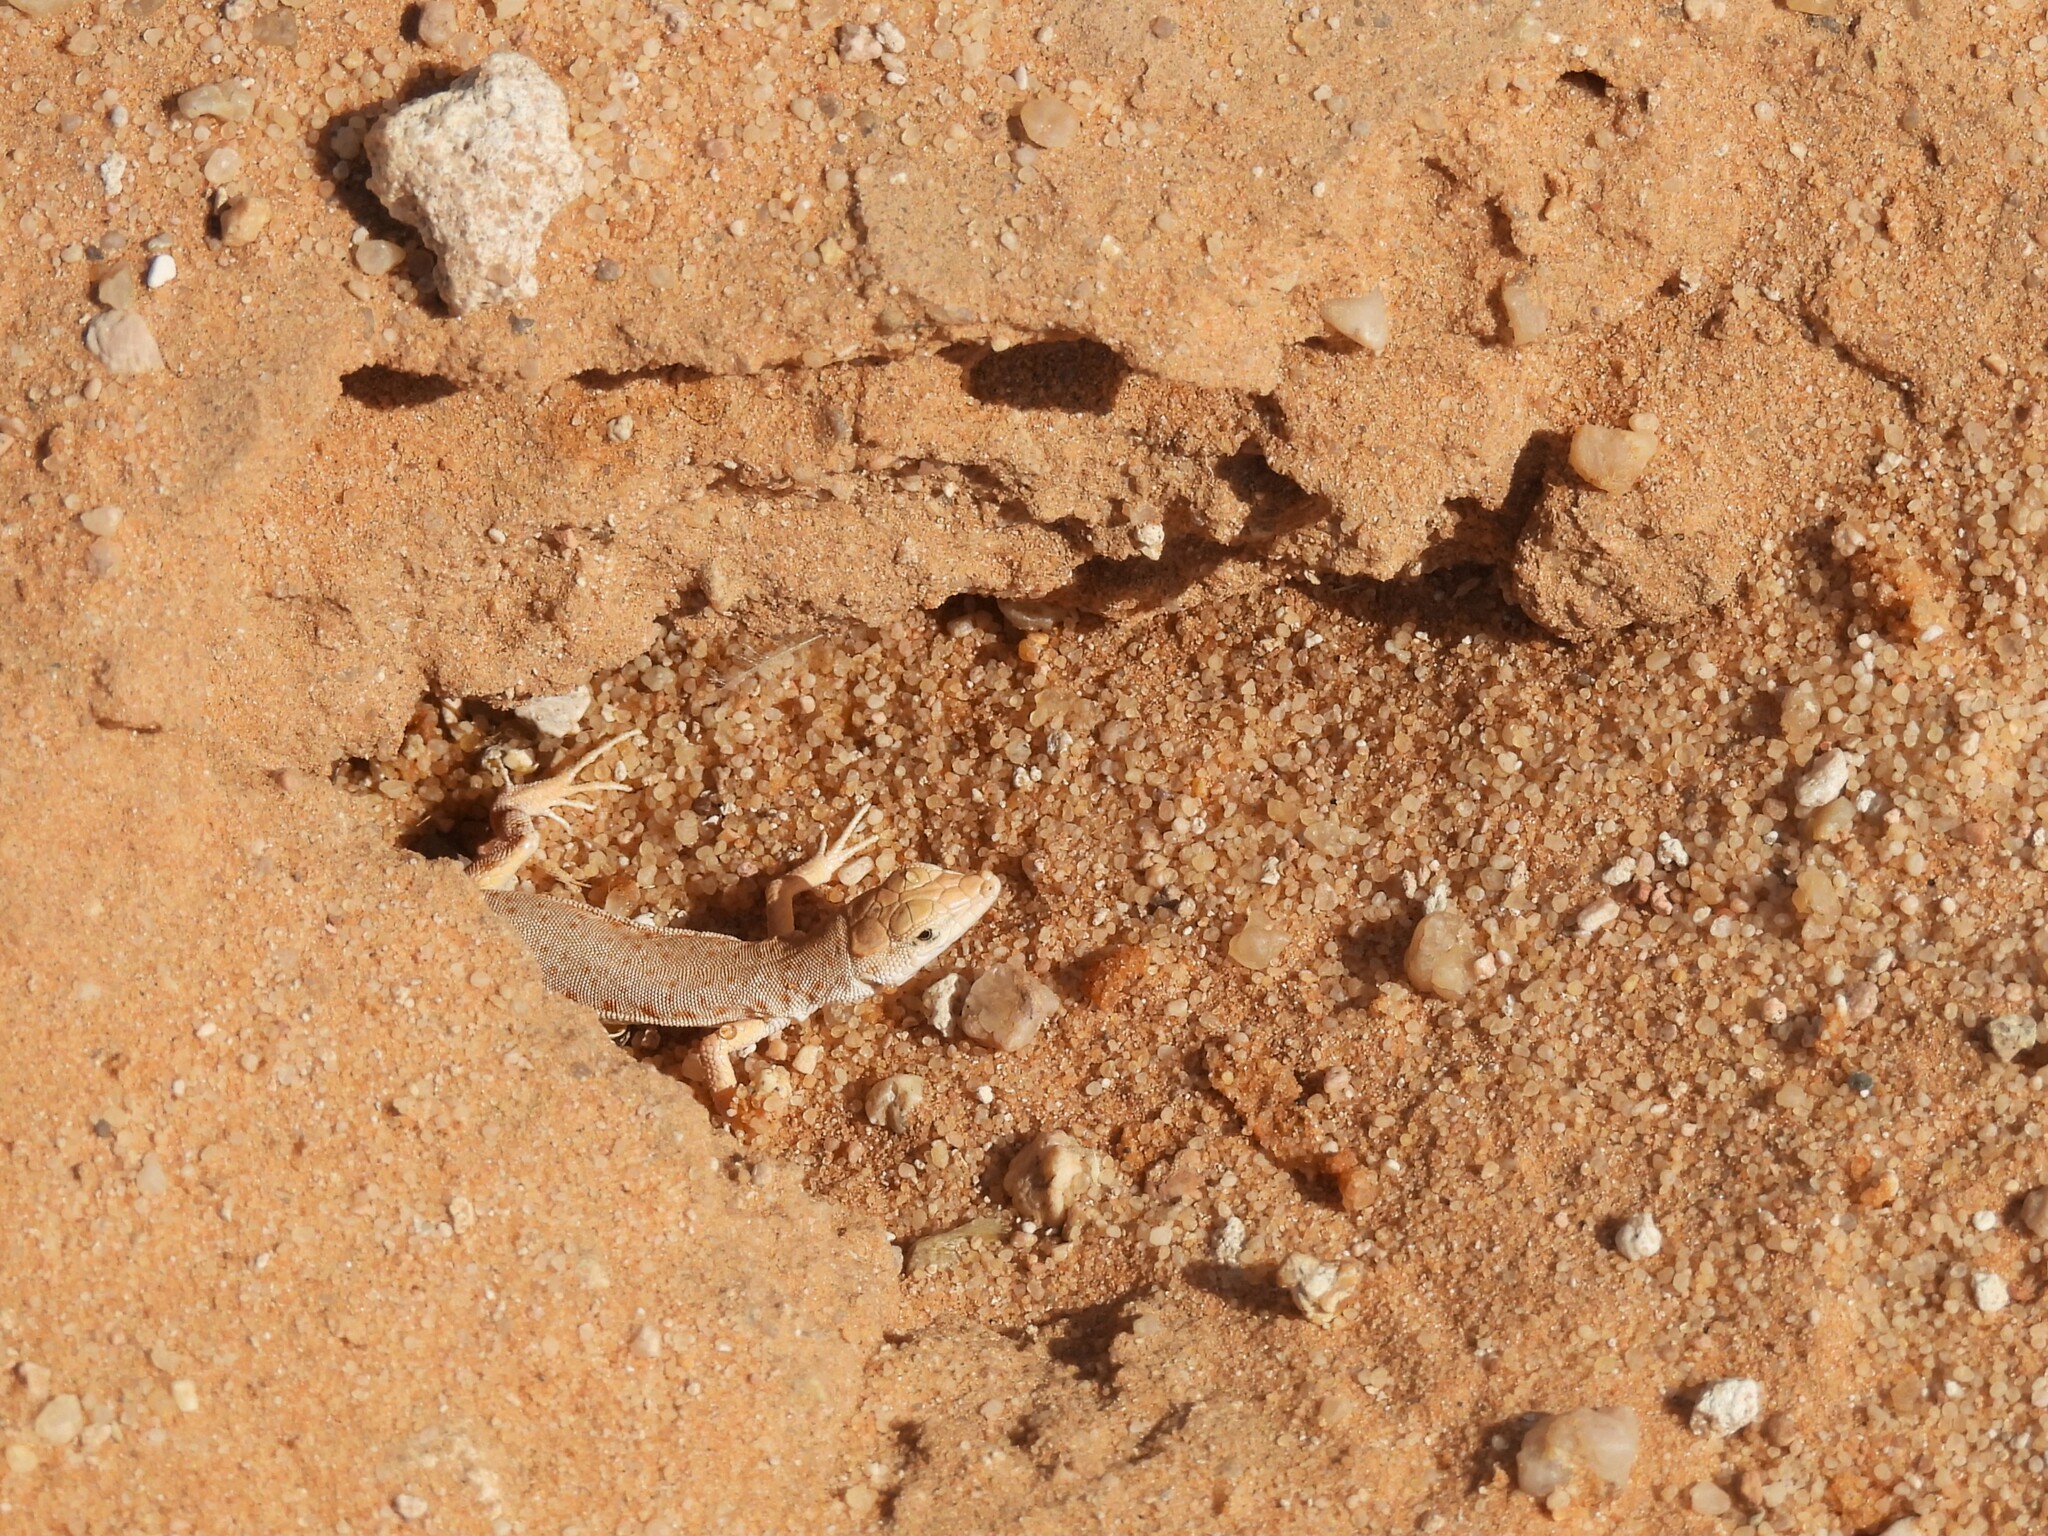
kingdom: Animalia
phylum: Chordata
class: Squamata
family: Lacertidae
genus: Mesalina
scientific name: Mesalina brevirostris
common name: Blanford's short-nosed desert lizard
